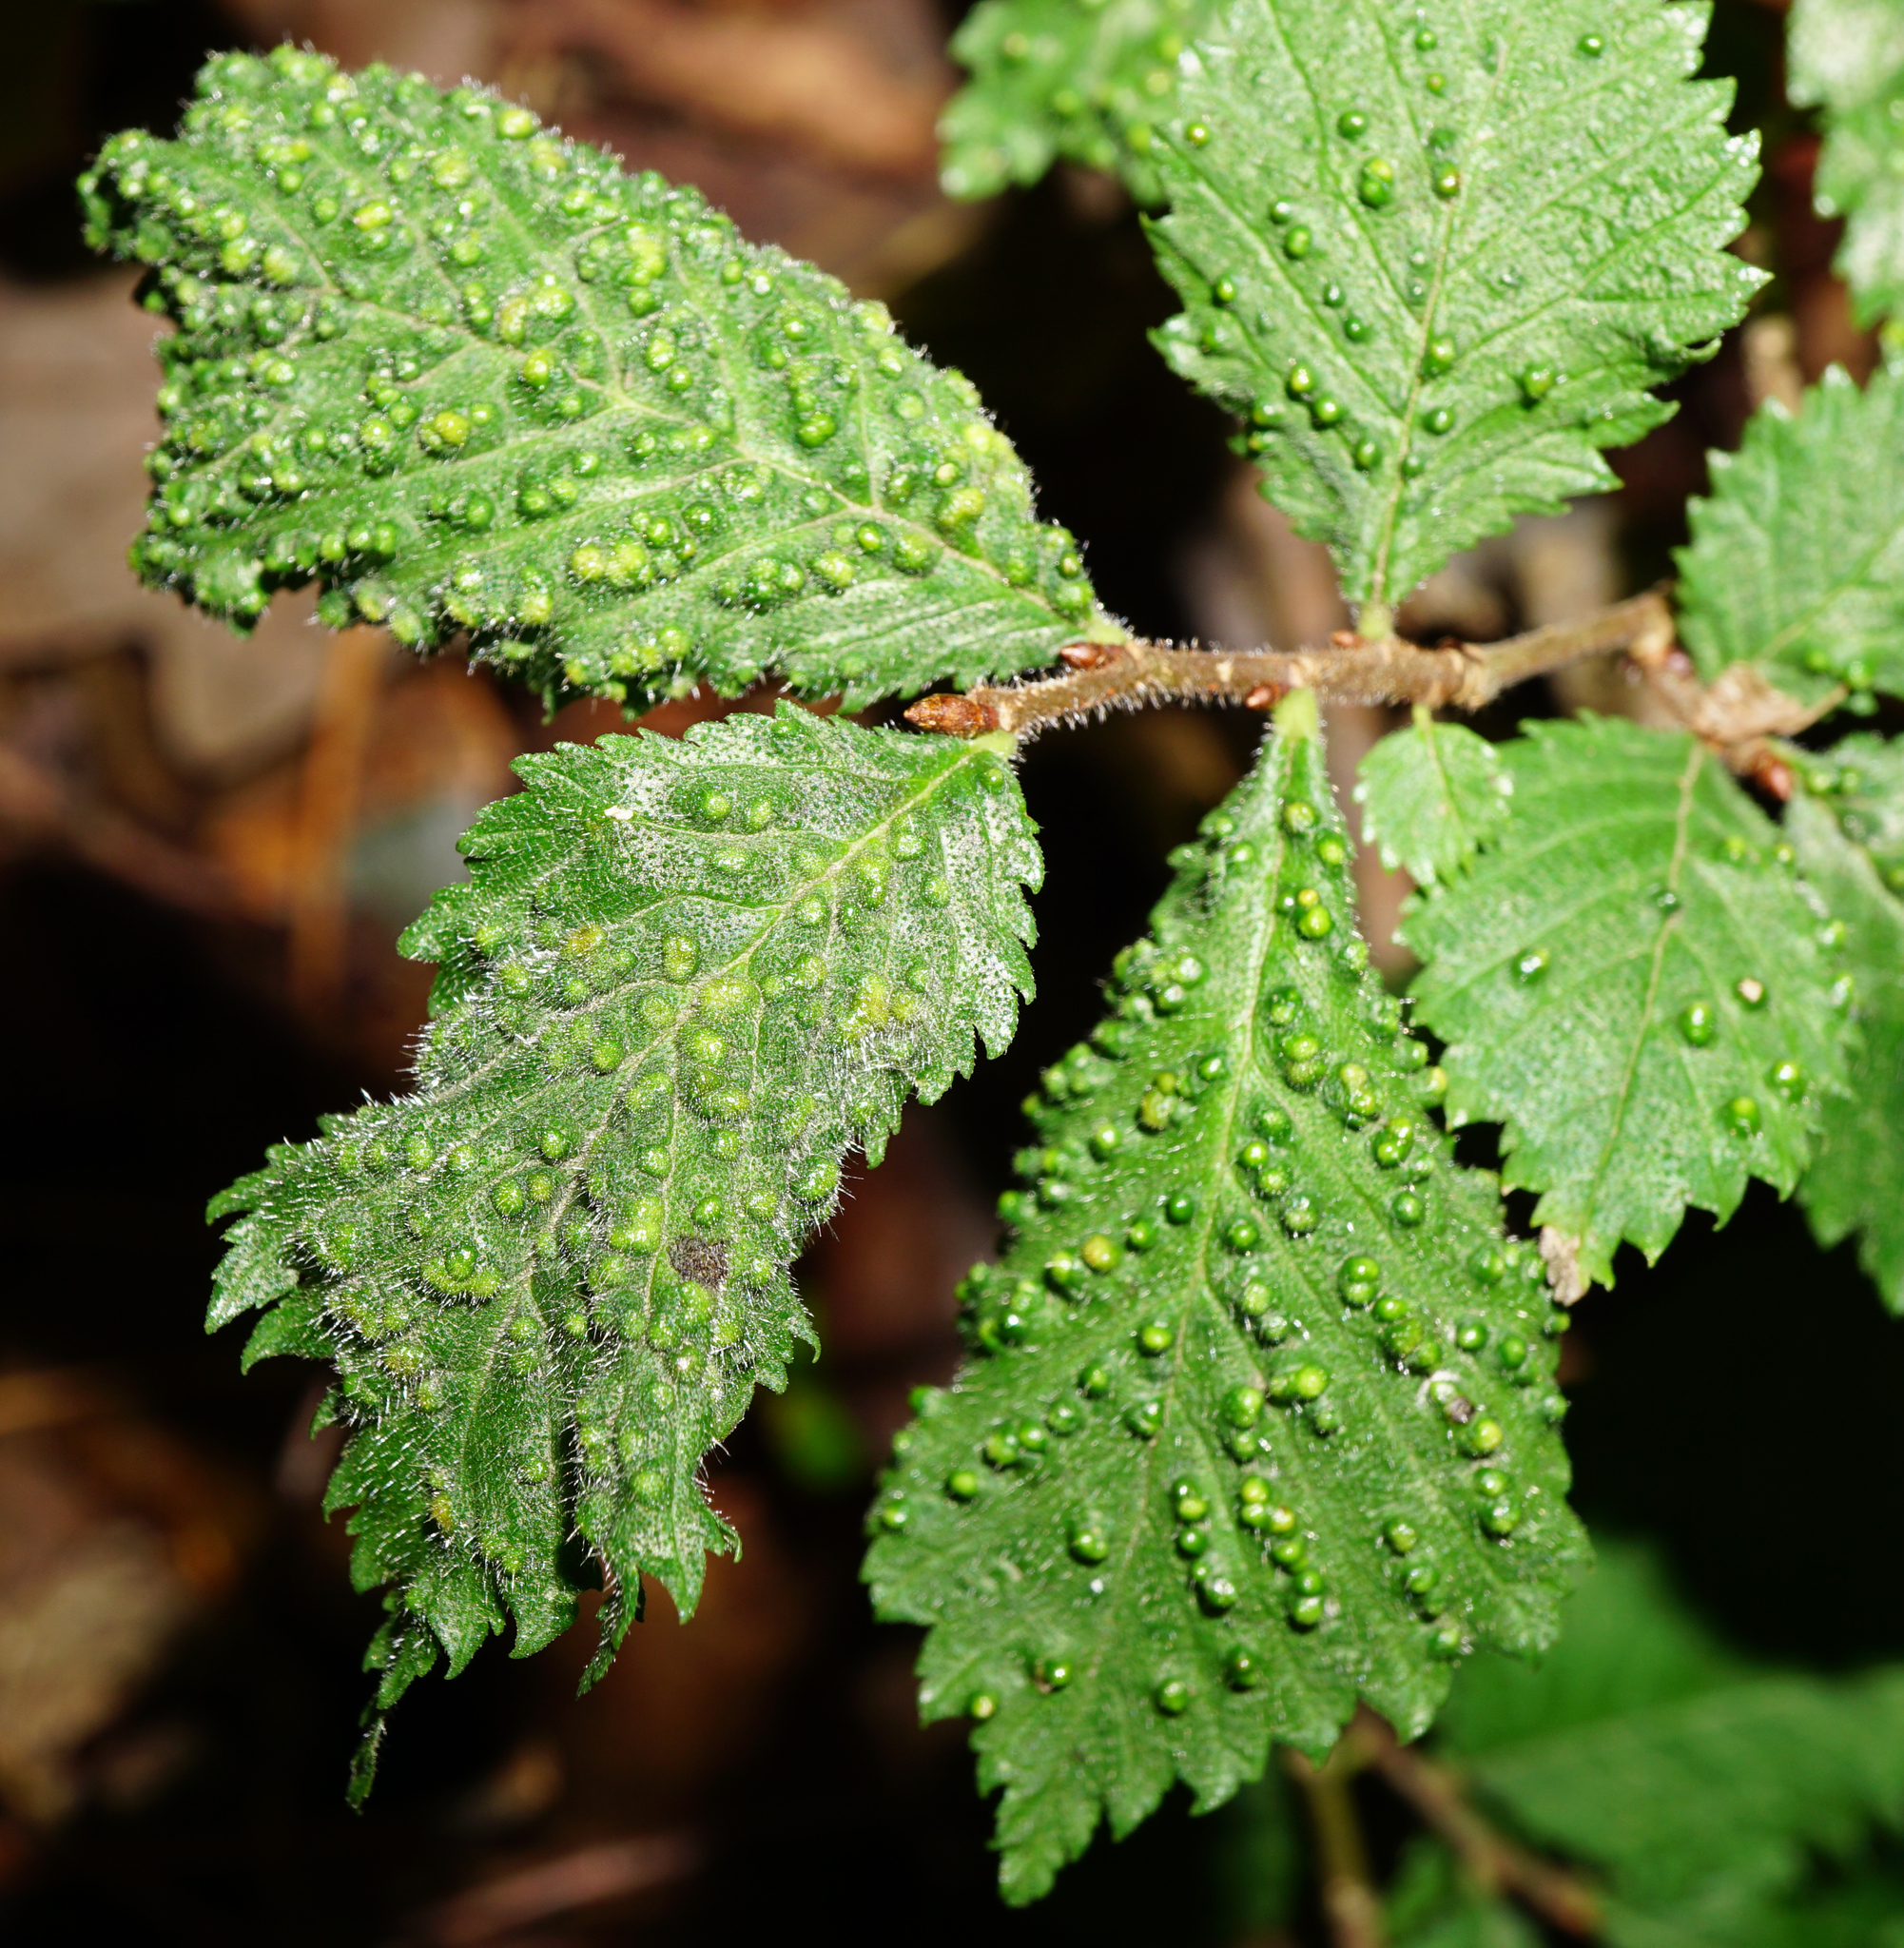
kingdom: Animalia
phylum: Arthropoda
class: Arachnida
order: Trombidiformes
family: Eriophyidae
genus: Aceria
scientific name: Aceria brevipunctata
